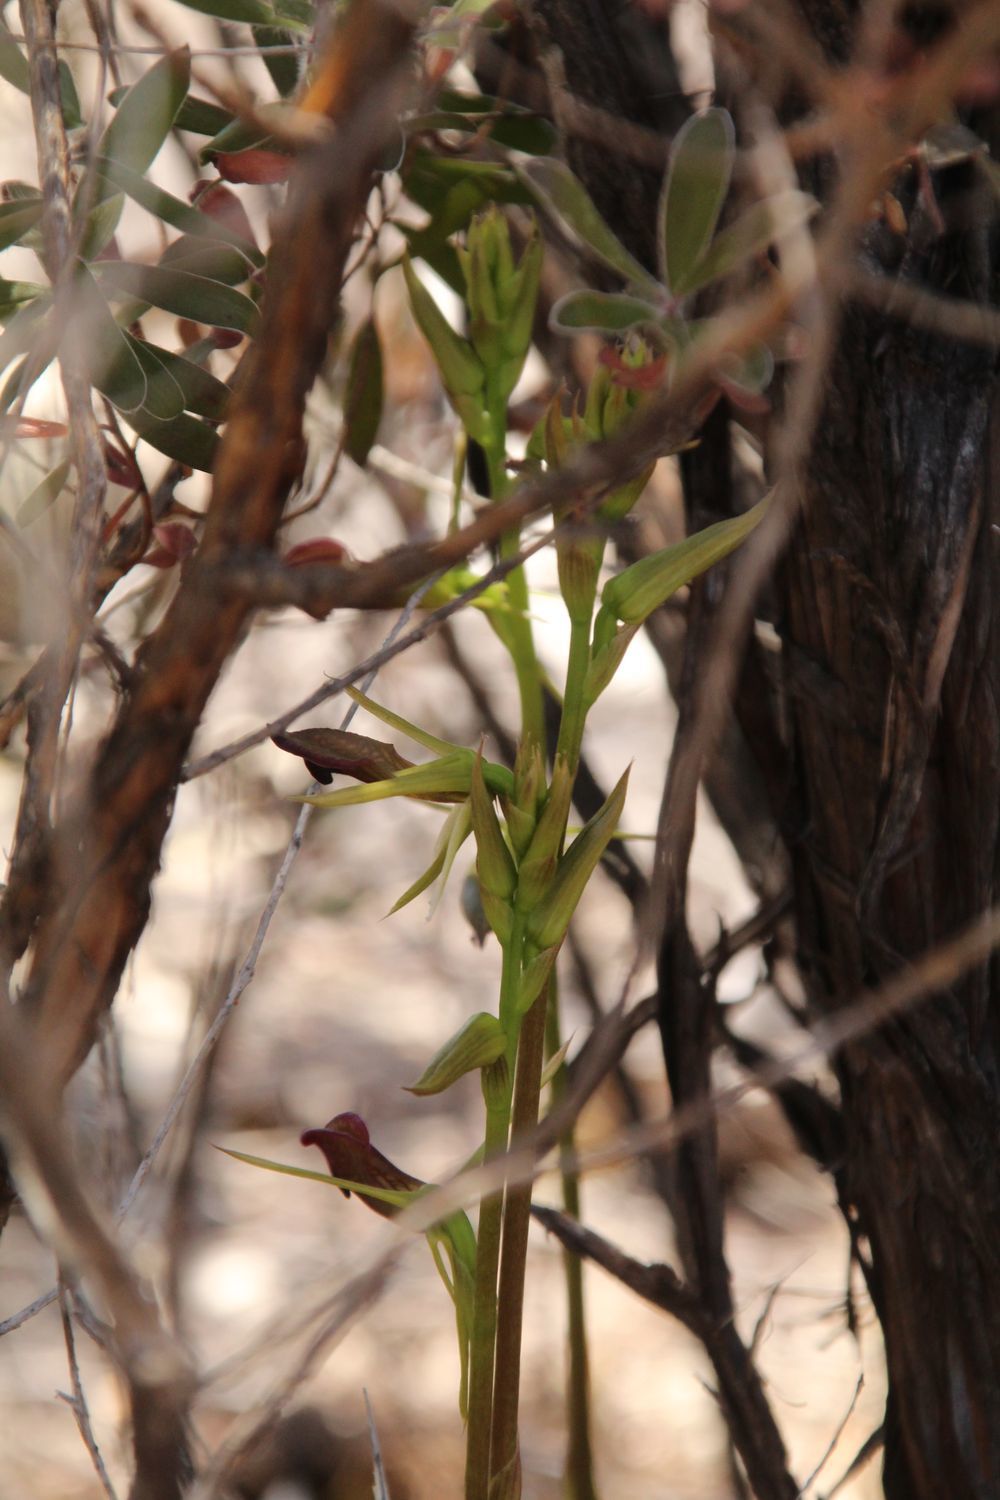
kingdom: Plantae
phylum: Tracheophyta
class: Liliopsida
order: Asparagales
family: Orchidaceae
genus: Cryptostylis
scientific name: Cryptostylis ovata
